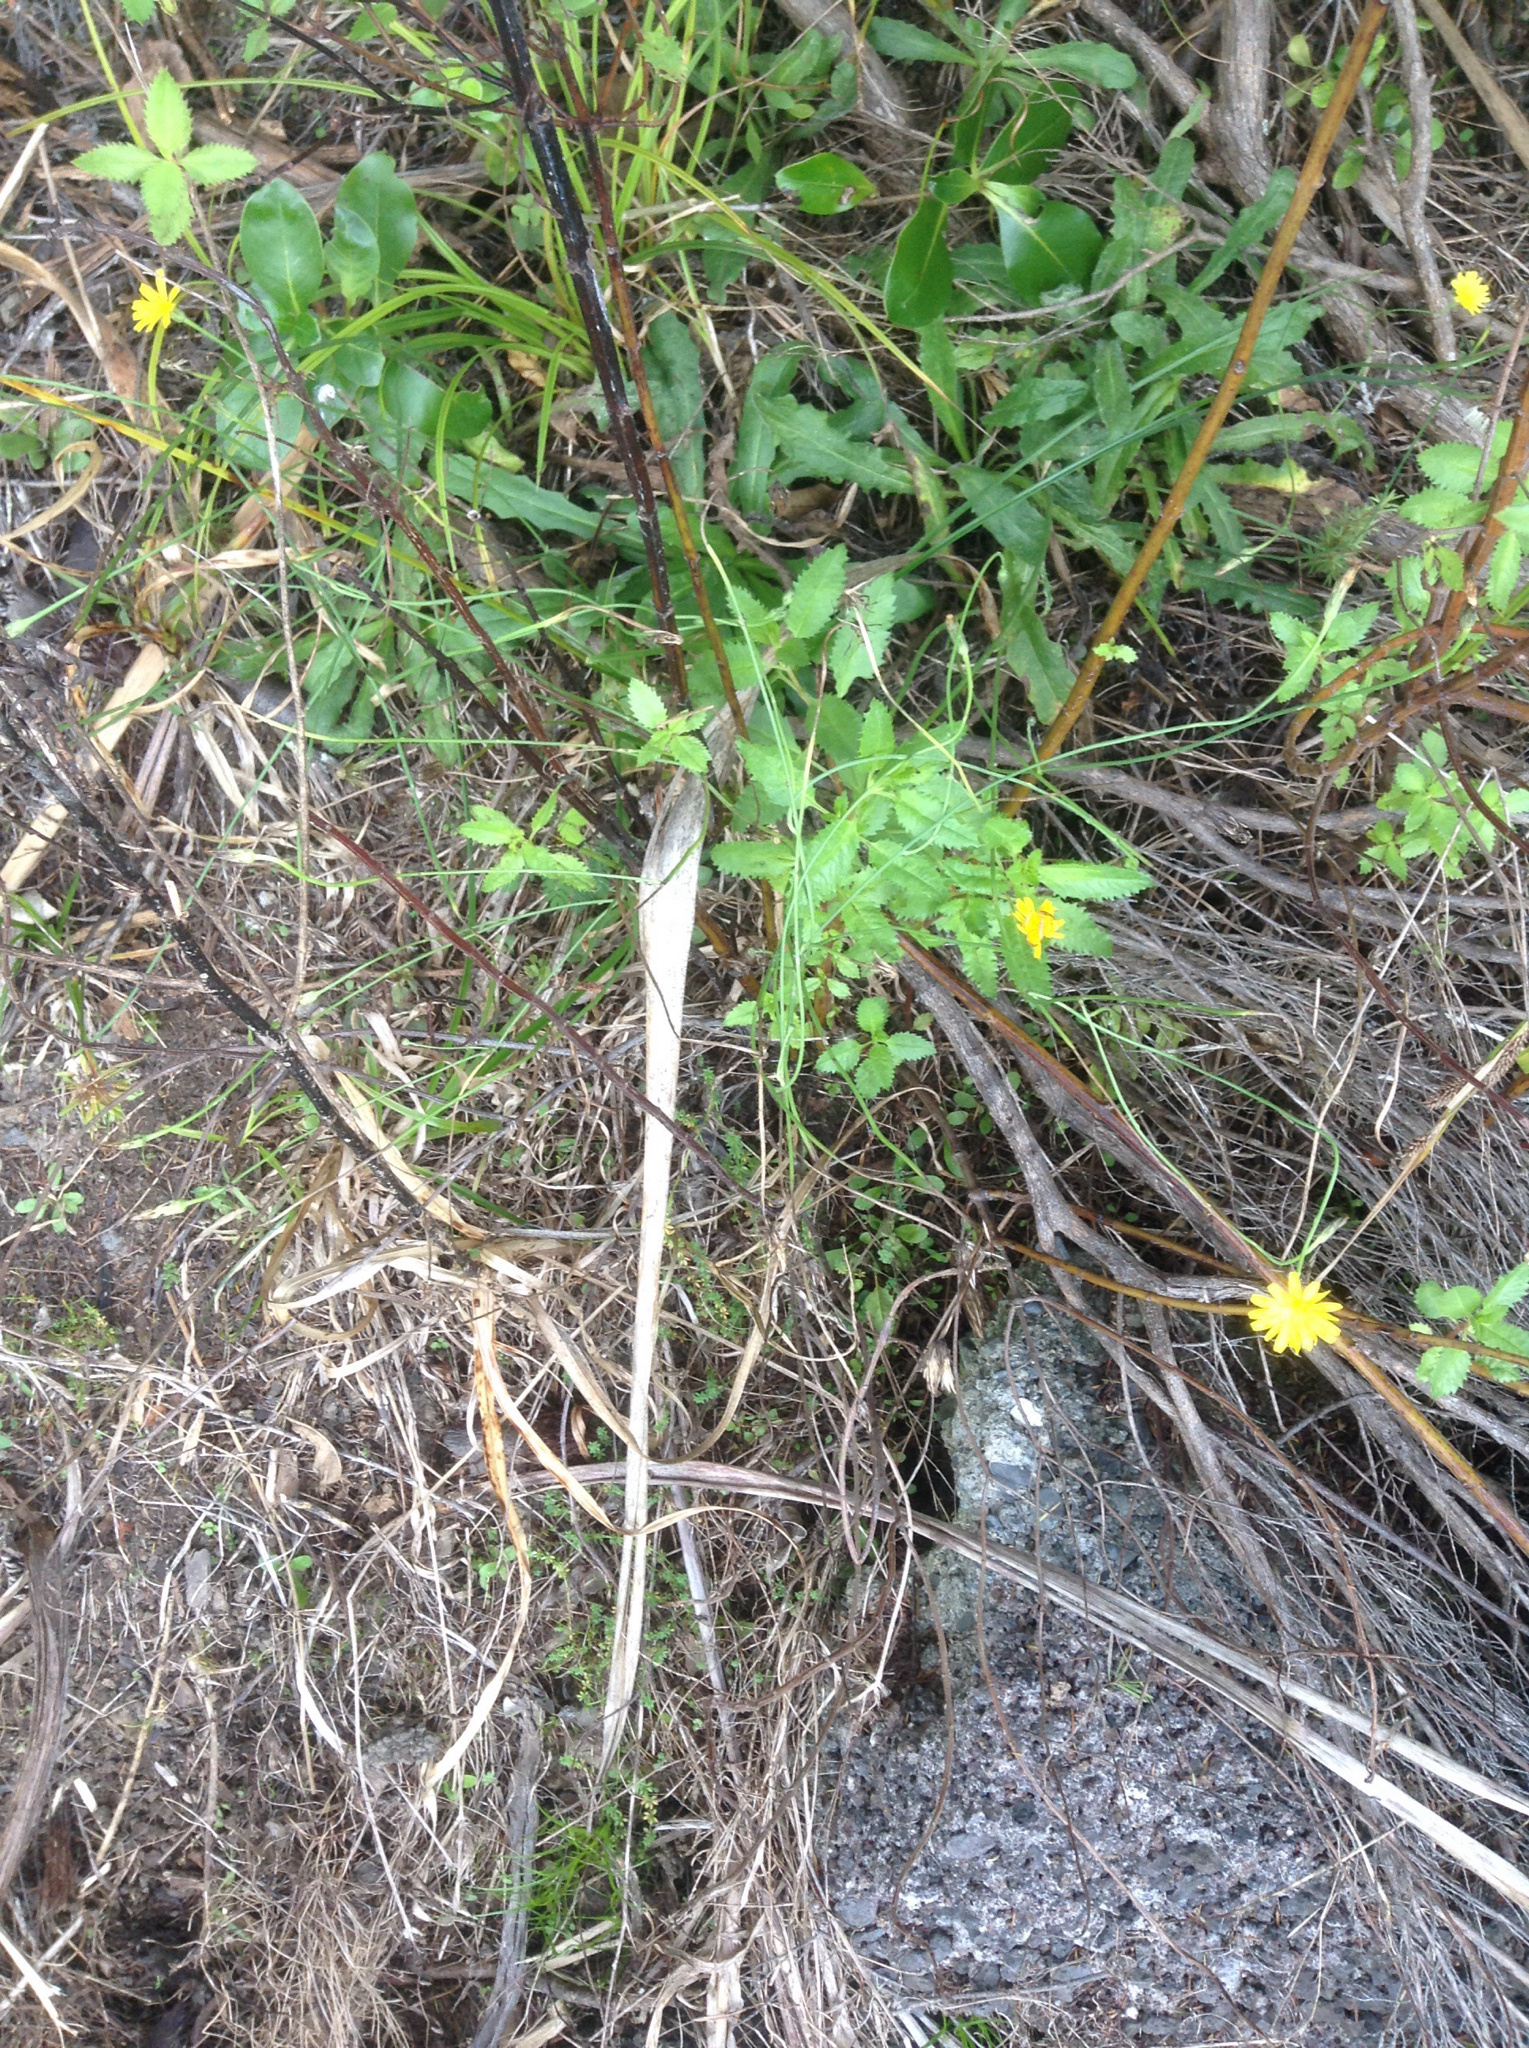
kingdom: Plantae
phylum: Tracheophyta
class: Magnoliopsida
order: Asterales
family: Asteraceae
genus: Hypochaeris
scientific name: Hypochaeris radicata
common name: Flatweed
